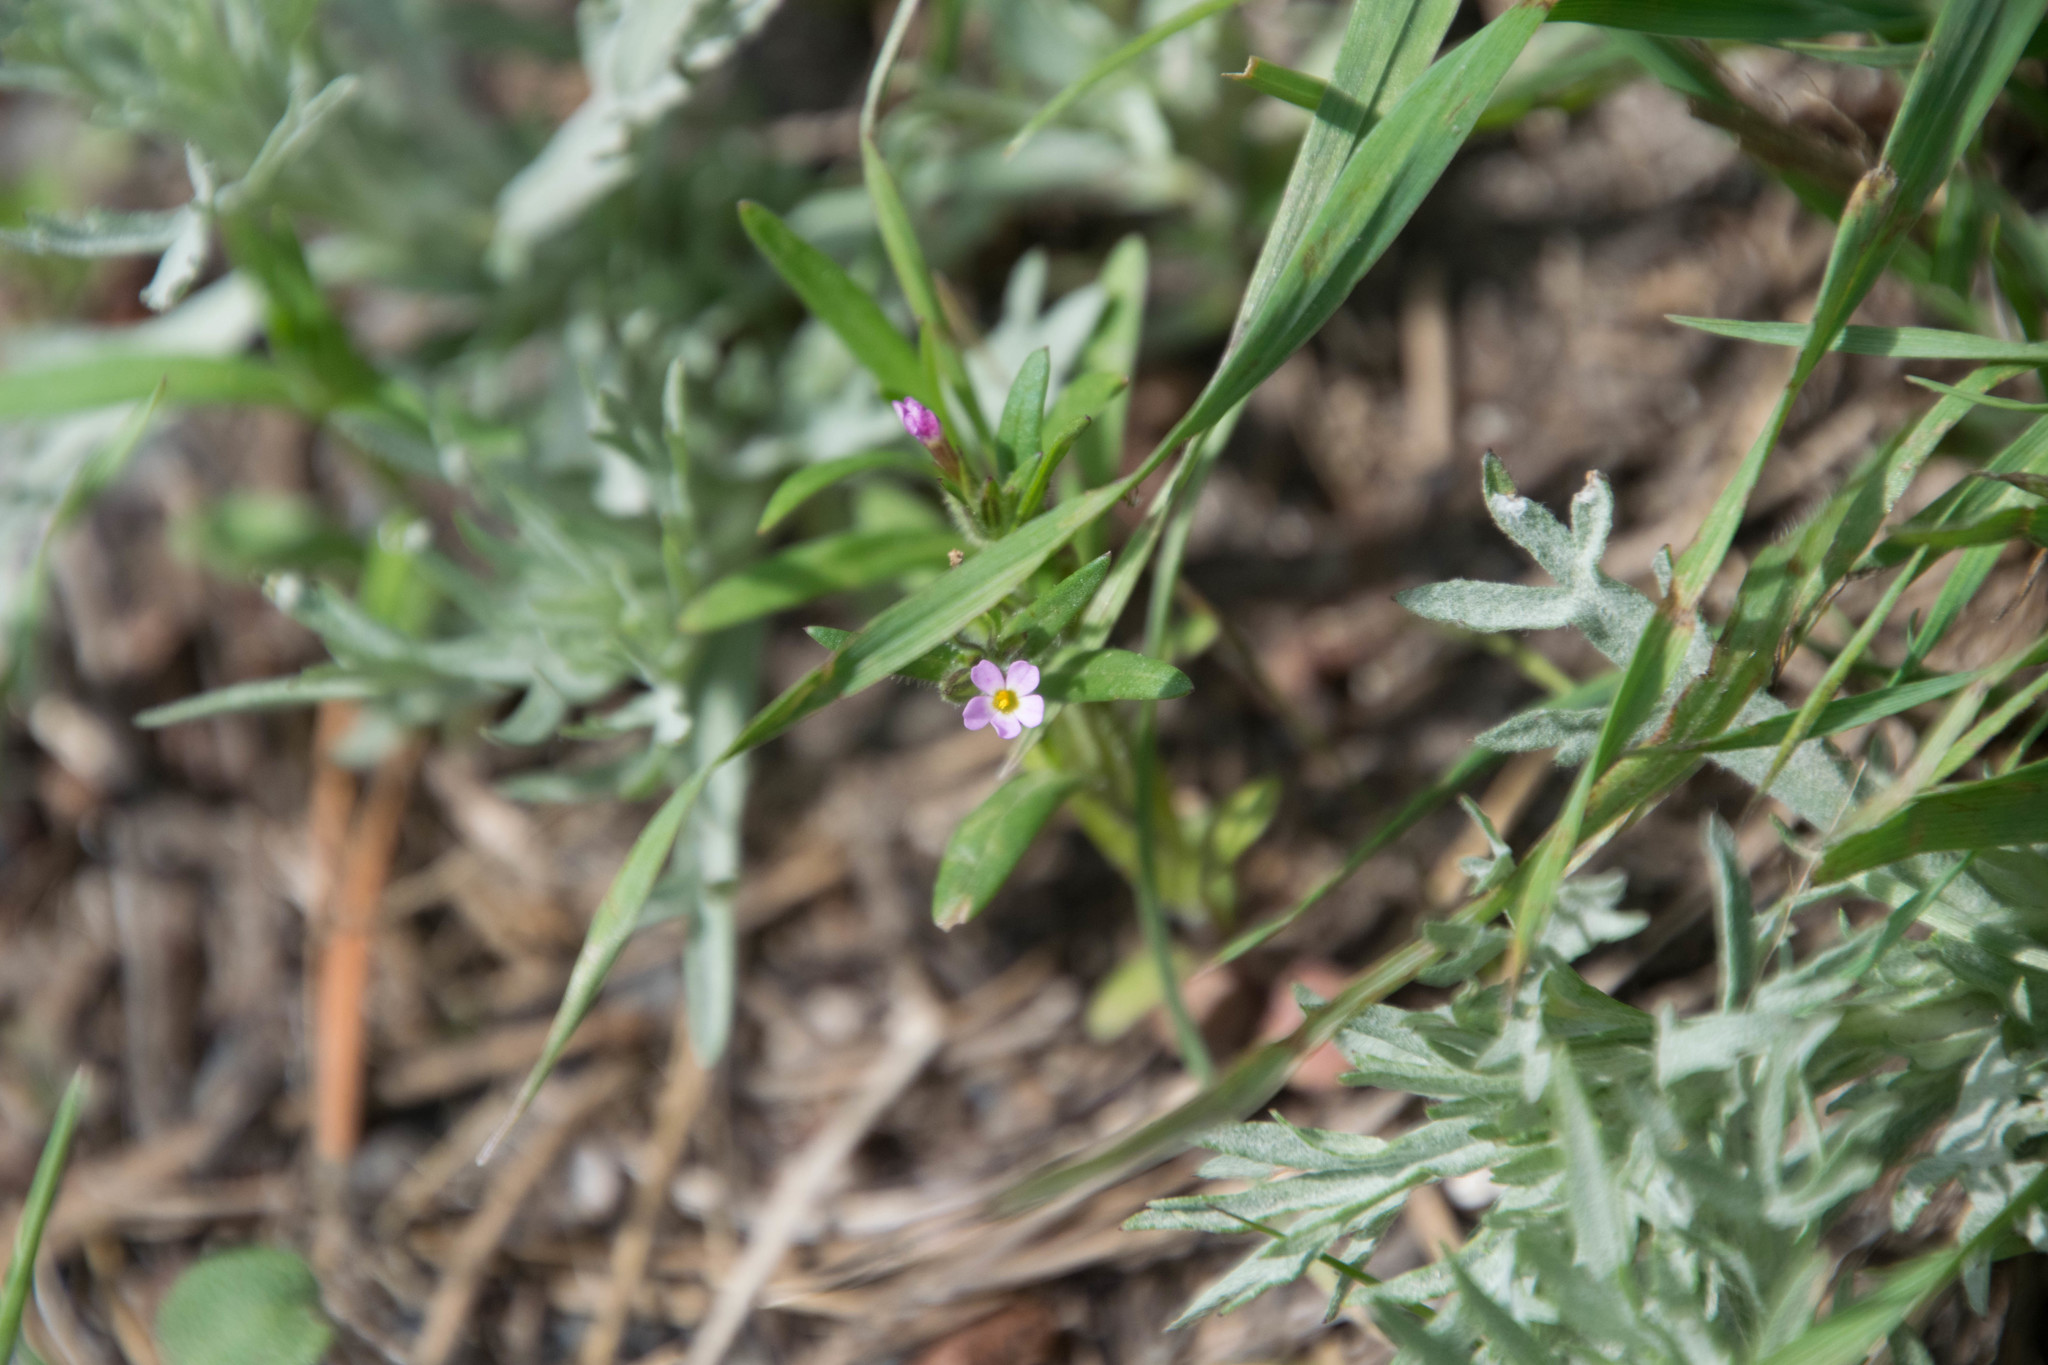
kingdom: Plantae
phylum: Tracheophyta
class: Magnoliopsida
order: Ericales
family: Polemoniaceae
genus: Phlox
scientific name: Phlox gracilis
